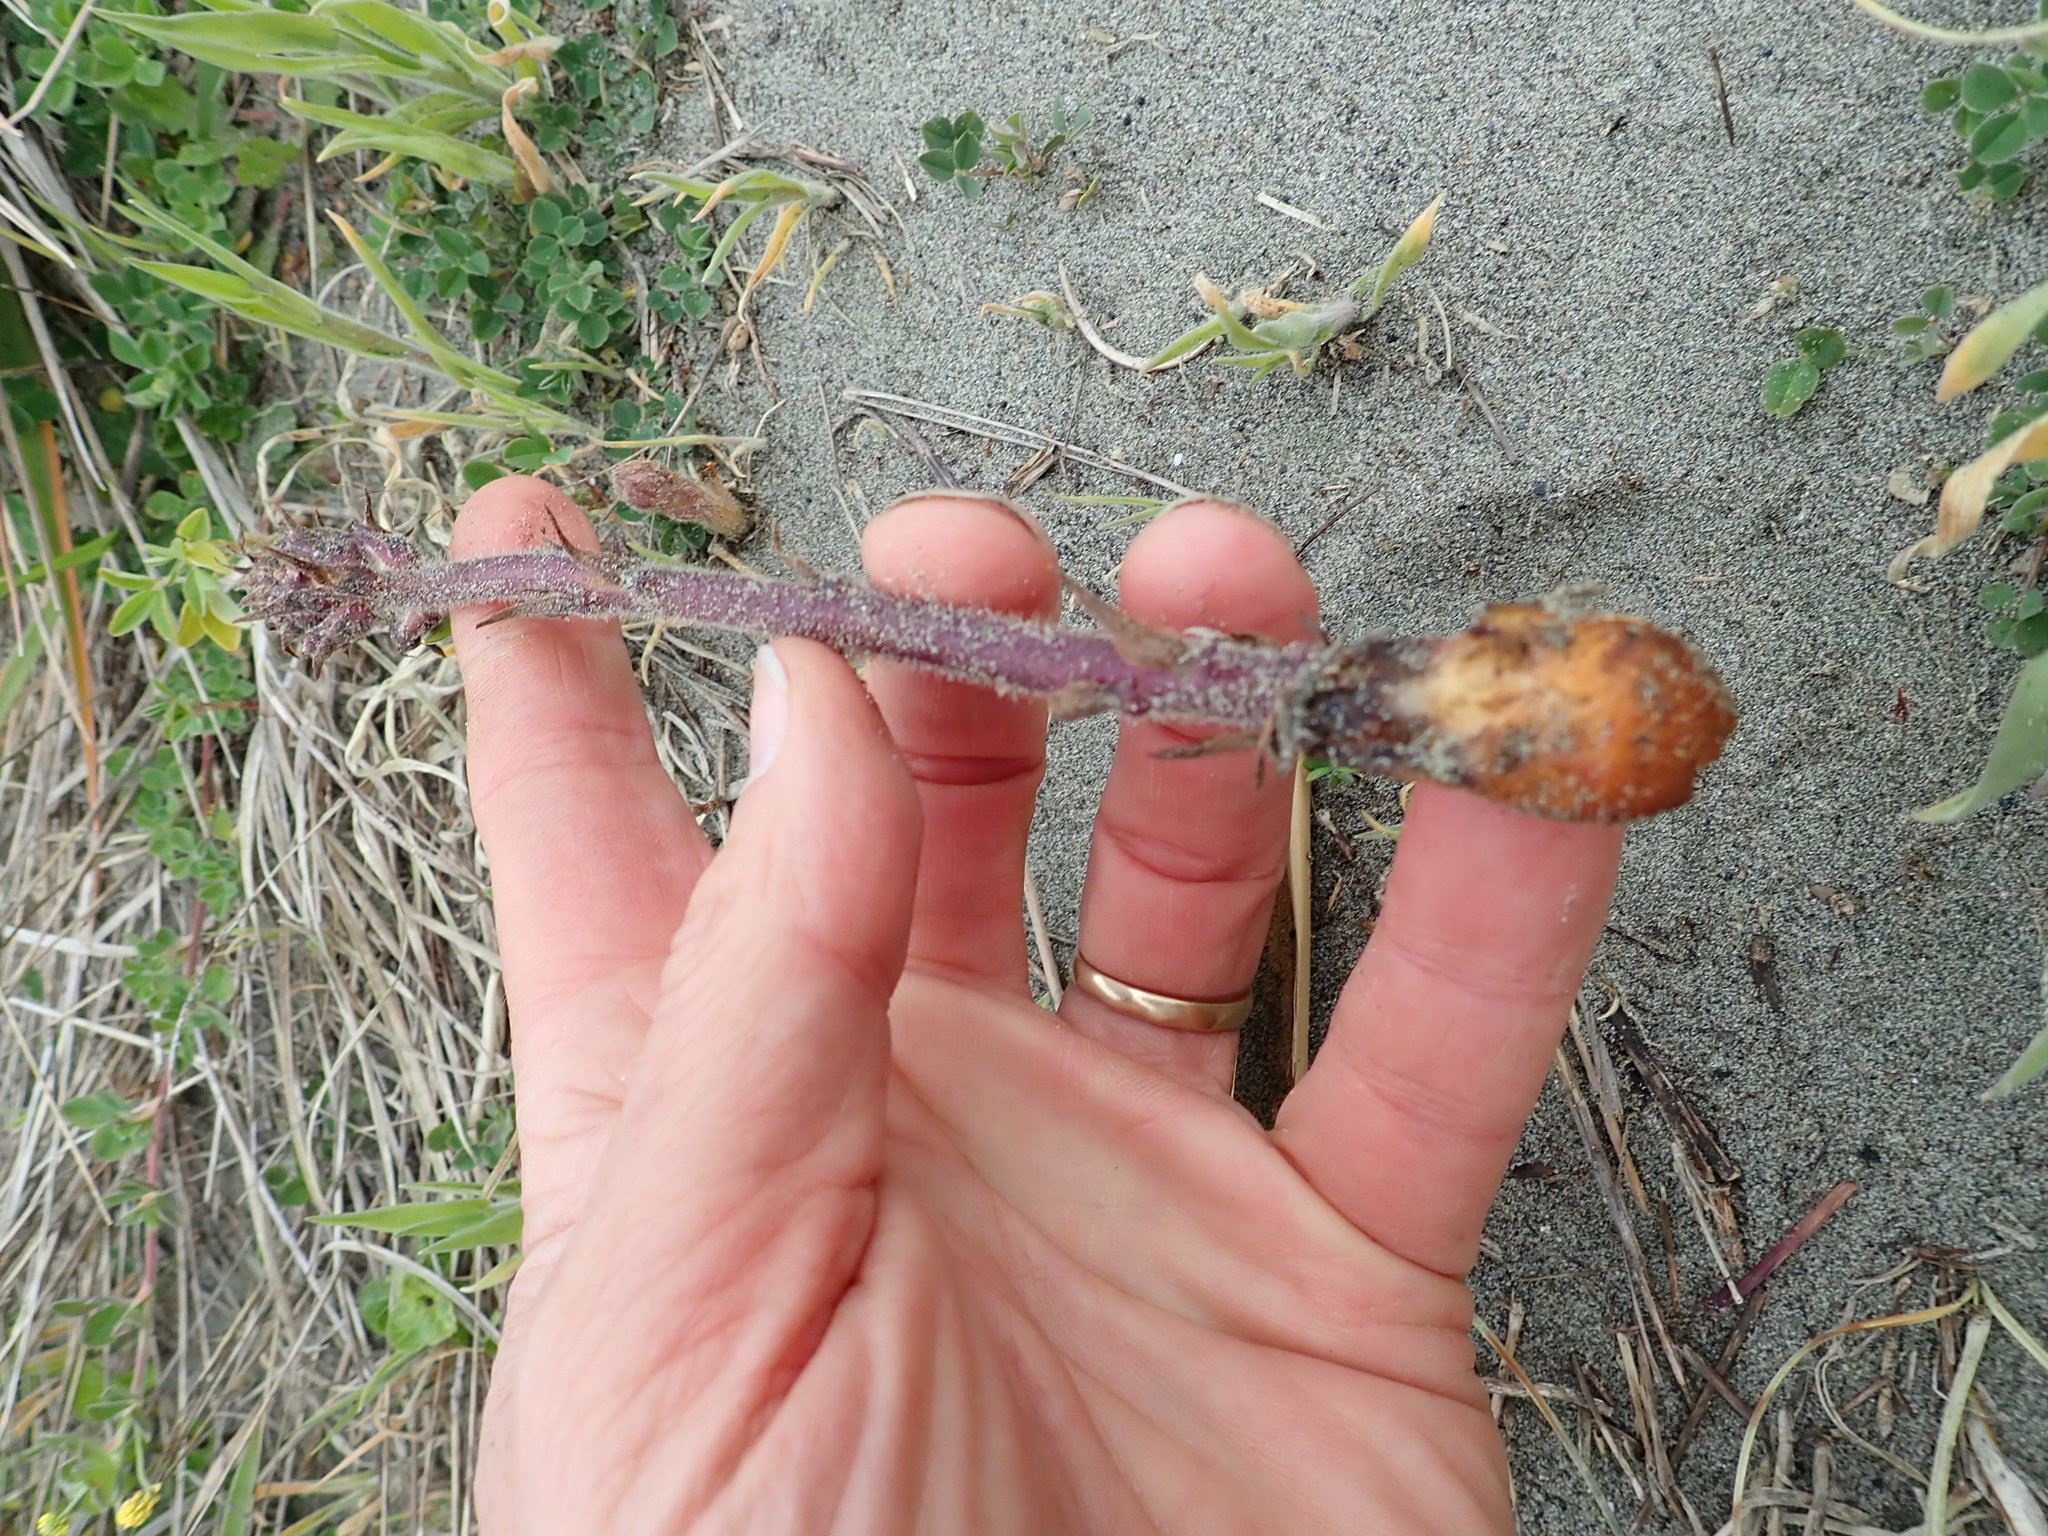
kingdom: Plantae
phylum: Tracheophyta
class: Magnoliopsida
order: Lamiales
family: Orobanchaceae
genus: Orobanche
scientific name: Orobanche minor
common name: Common broomrape
